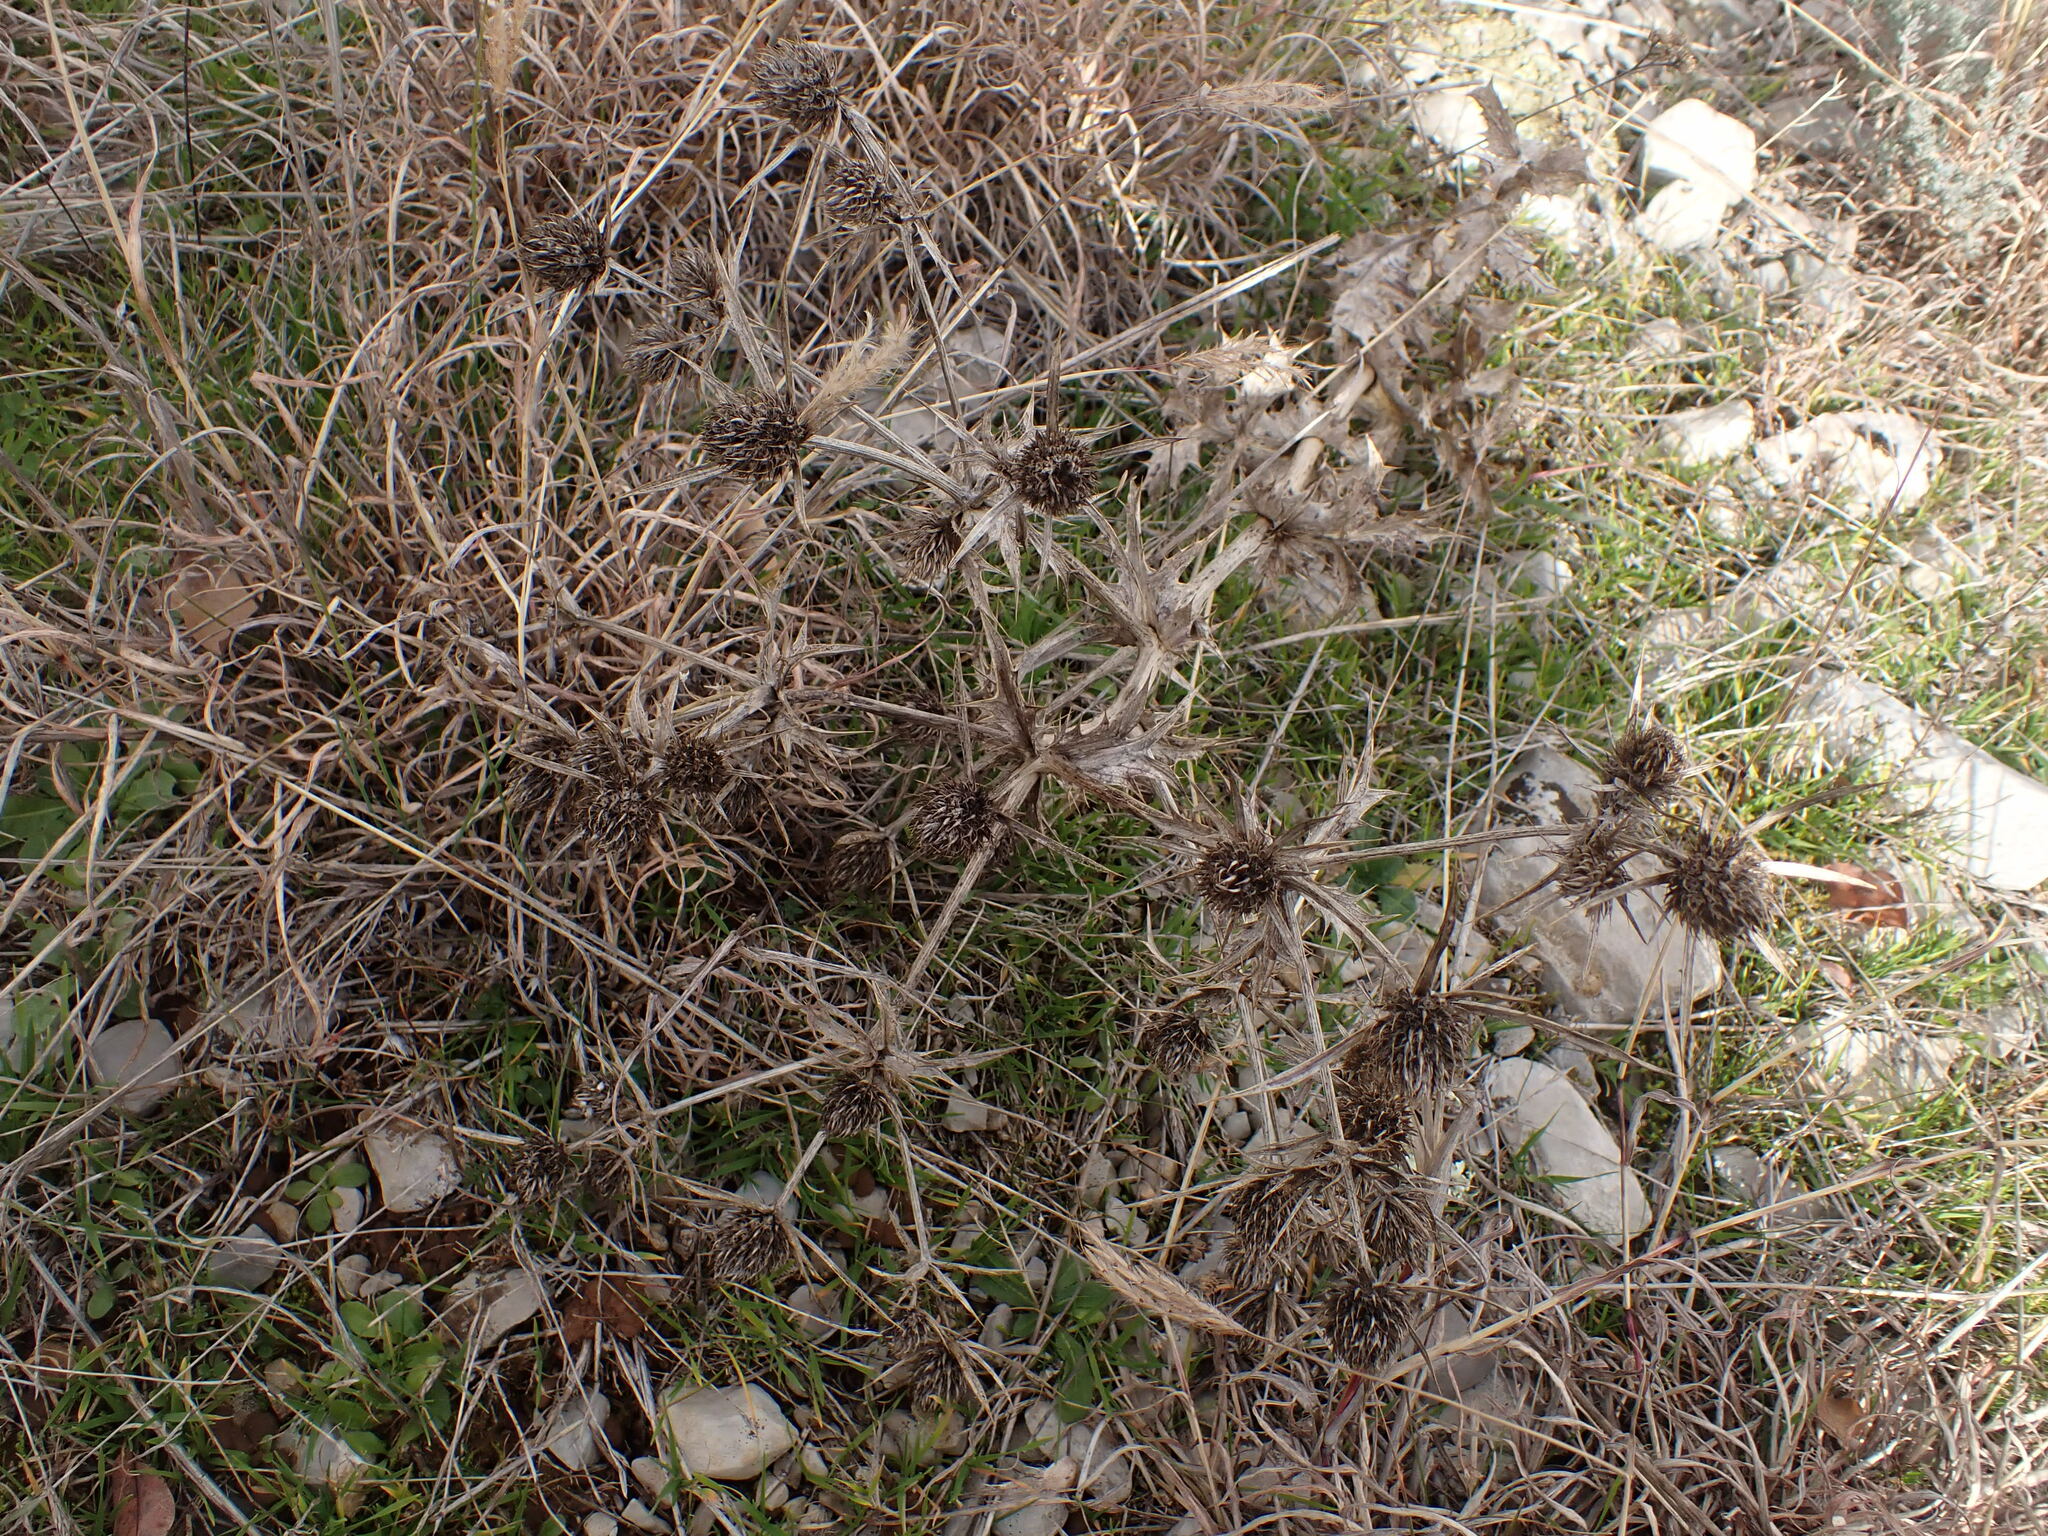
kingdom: Plantae
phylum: Tracheophyta
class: Magnoliopsida
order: Apiales
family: Apiaceae
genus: Eryngium
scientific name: Eryngium campestre
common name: Field eryngo
